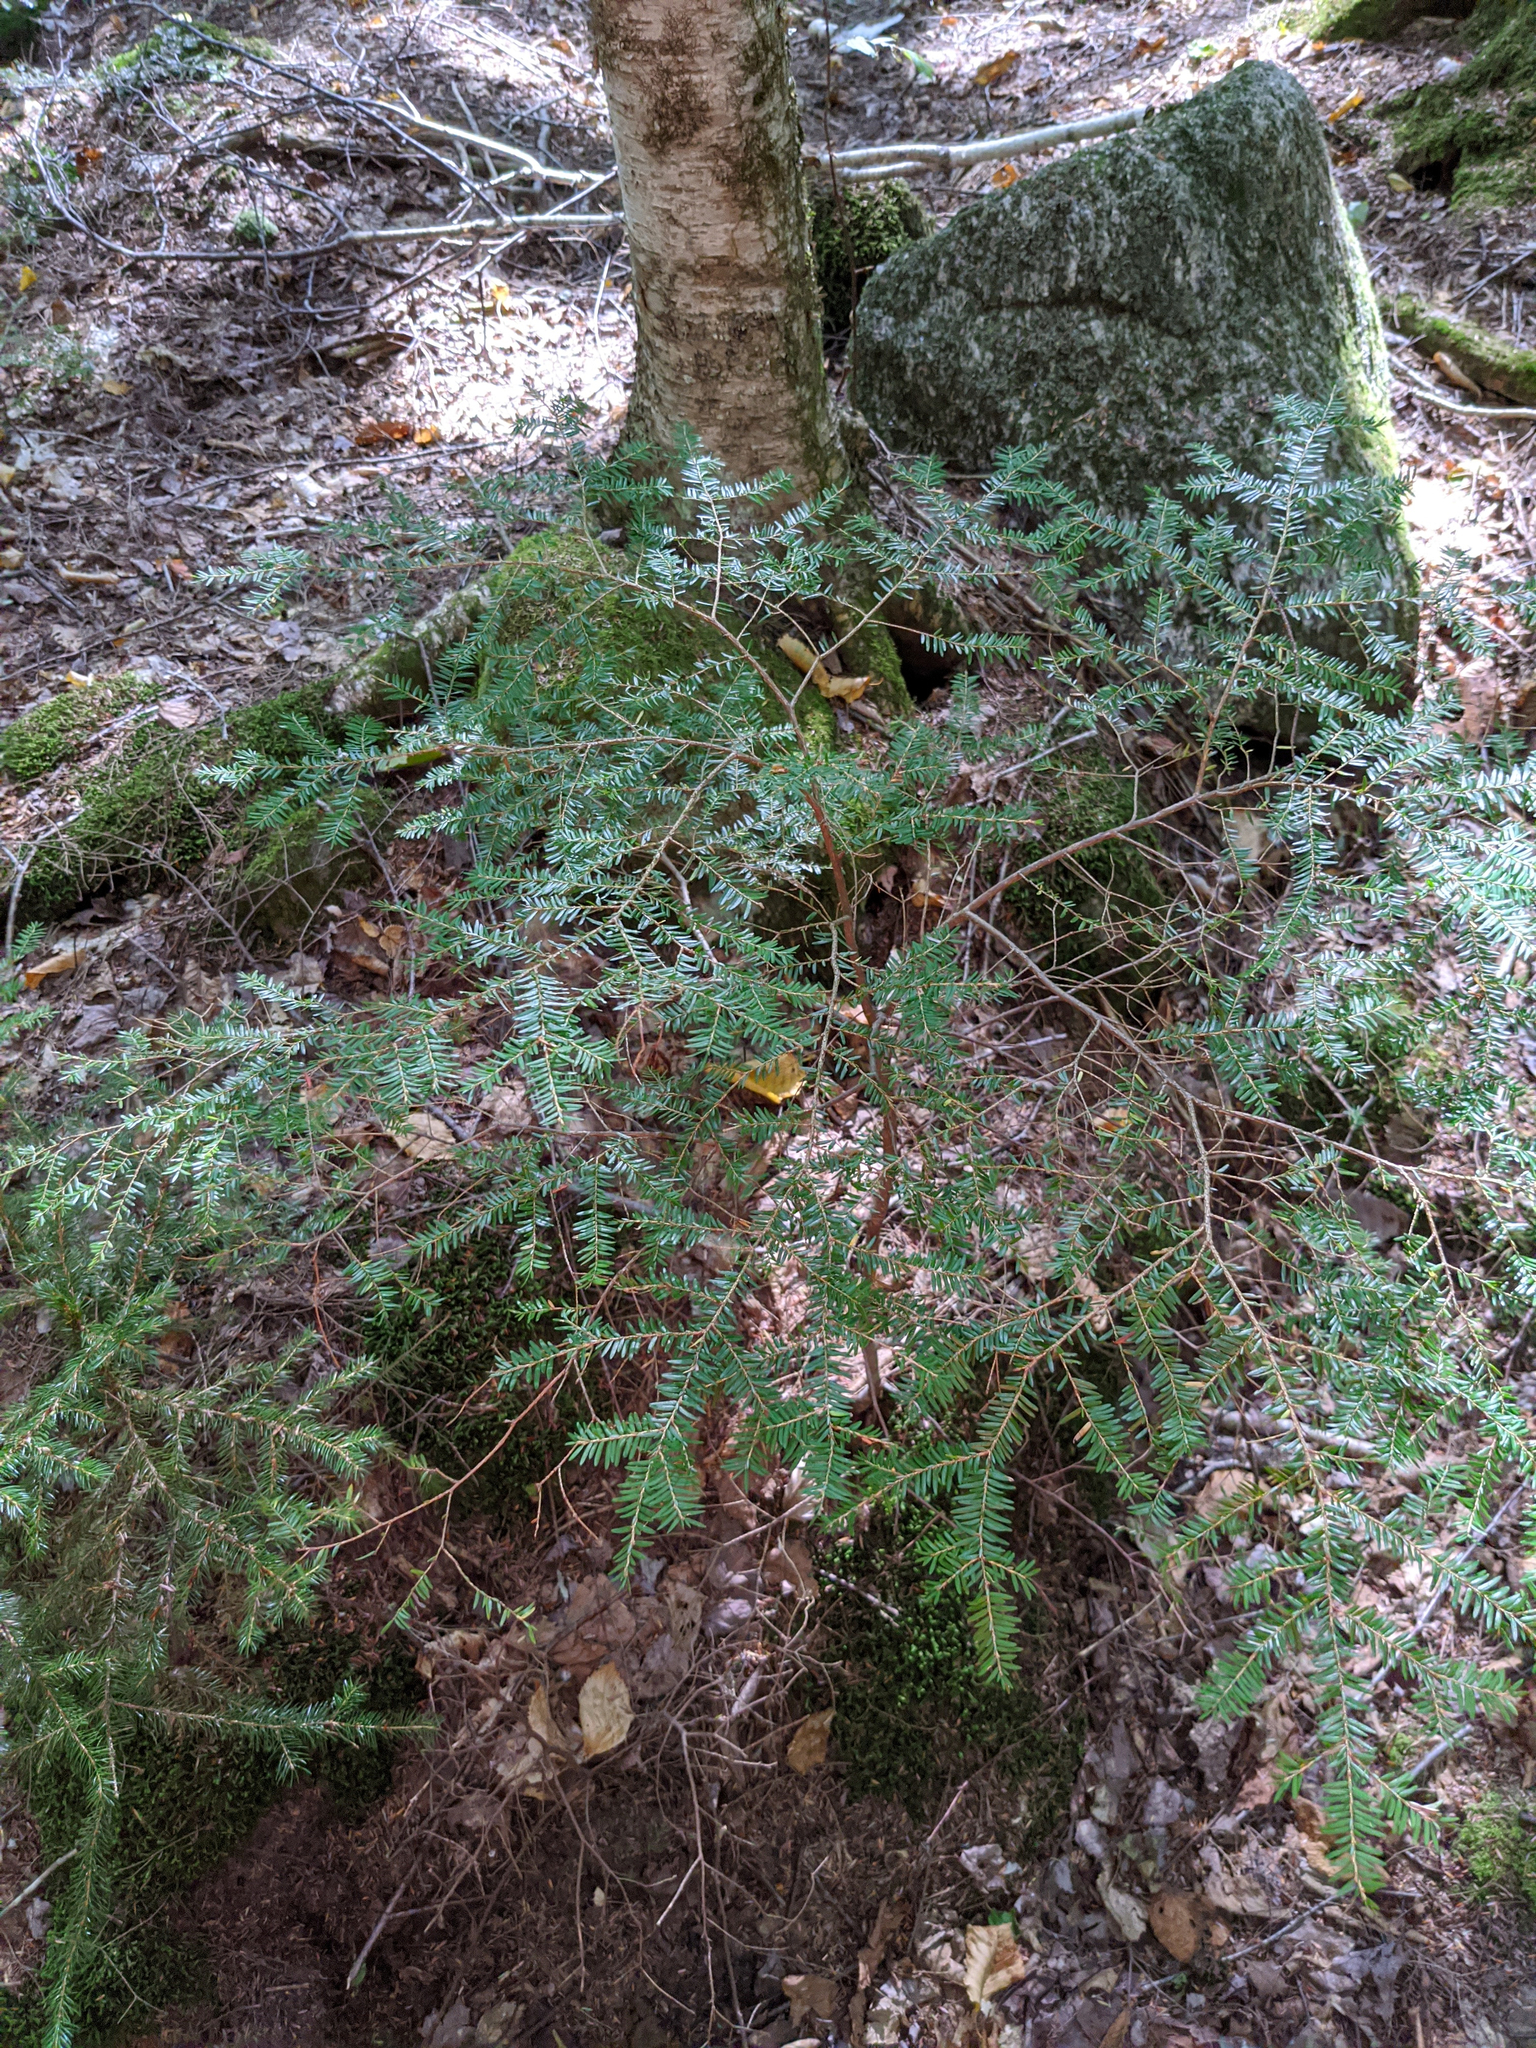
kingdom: Plantae
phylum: Tracheophyta
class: Pinopsida
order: Pinales
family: Pinaceae
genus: Tsuga
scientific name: Tsuga canadensis
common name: Eastern hemlock
